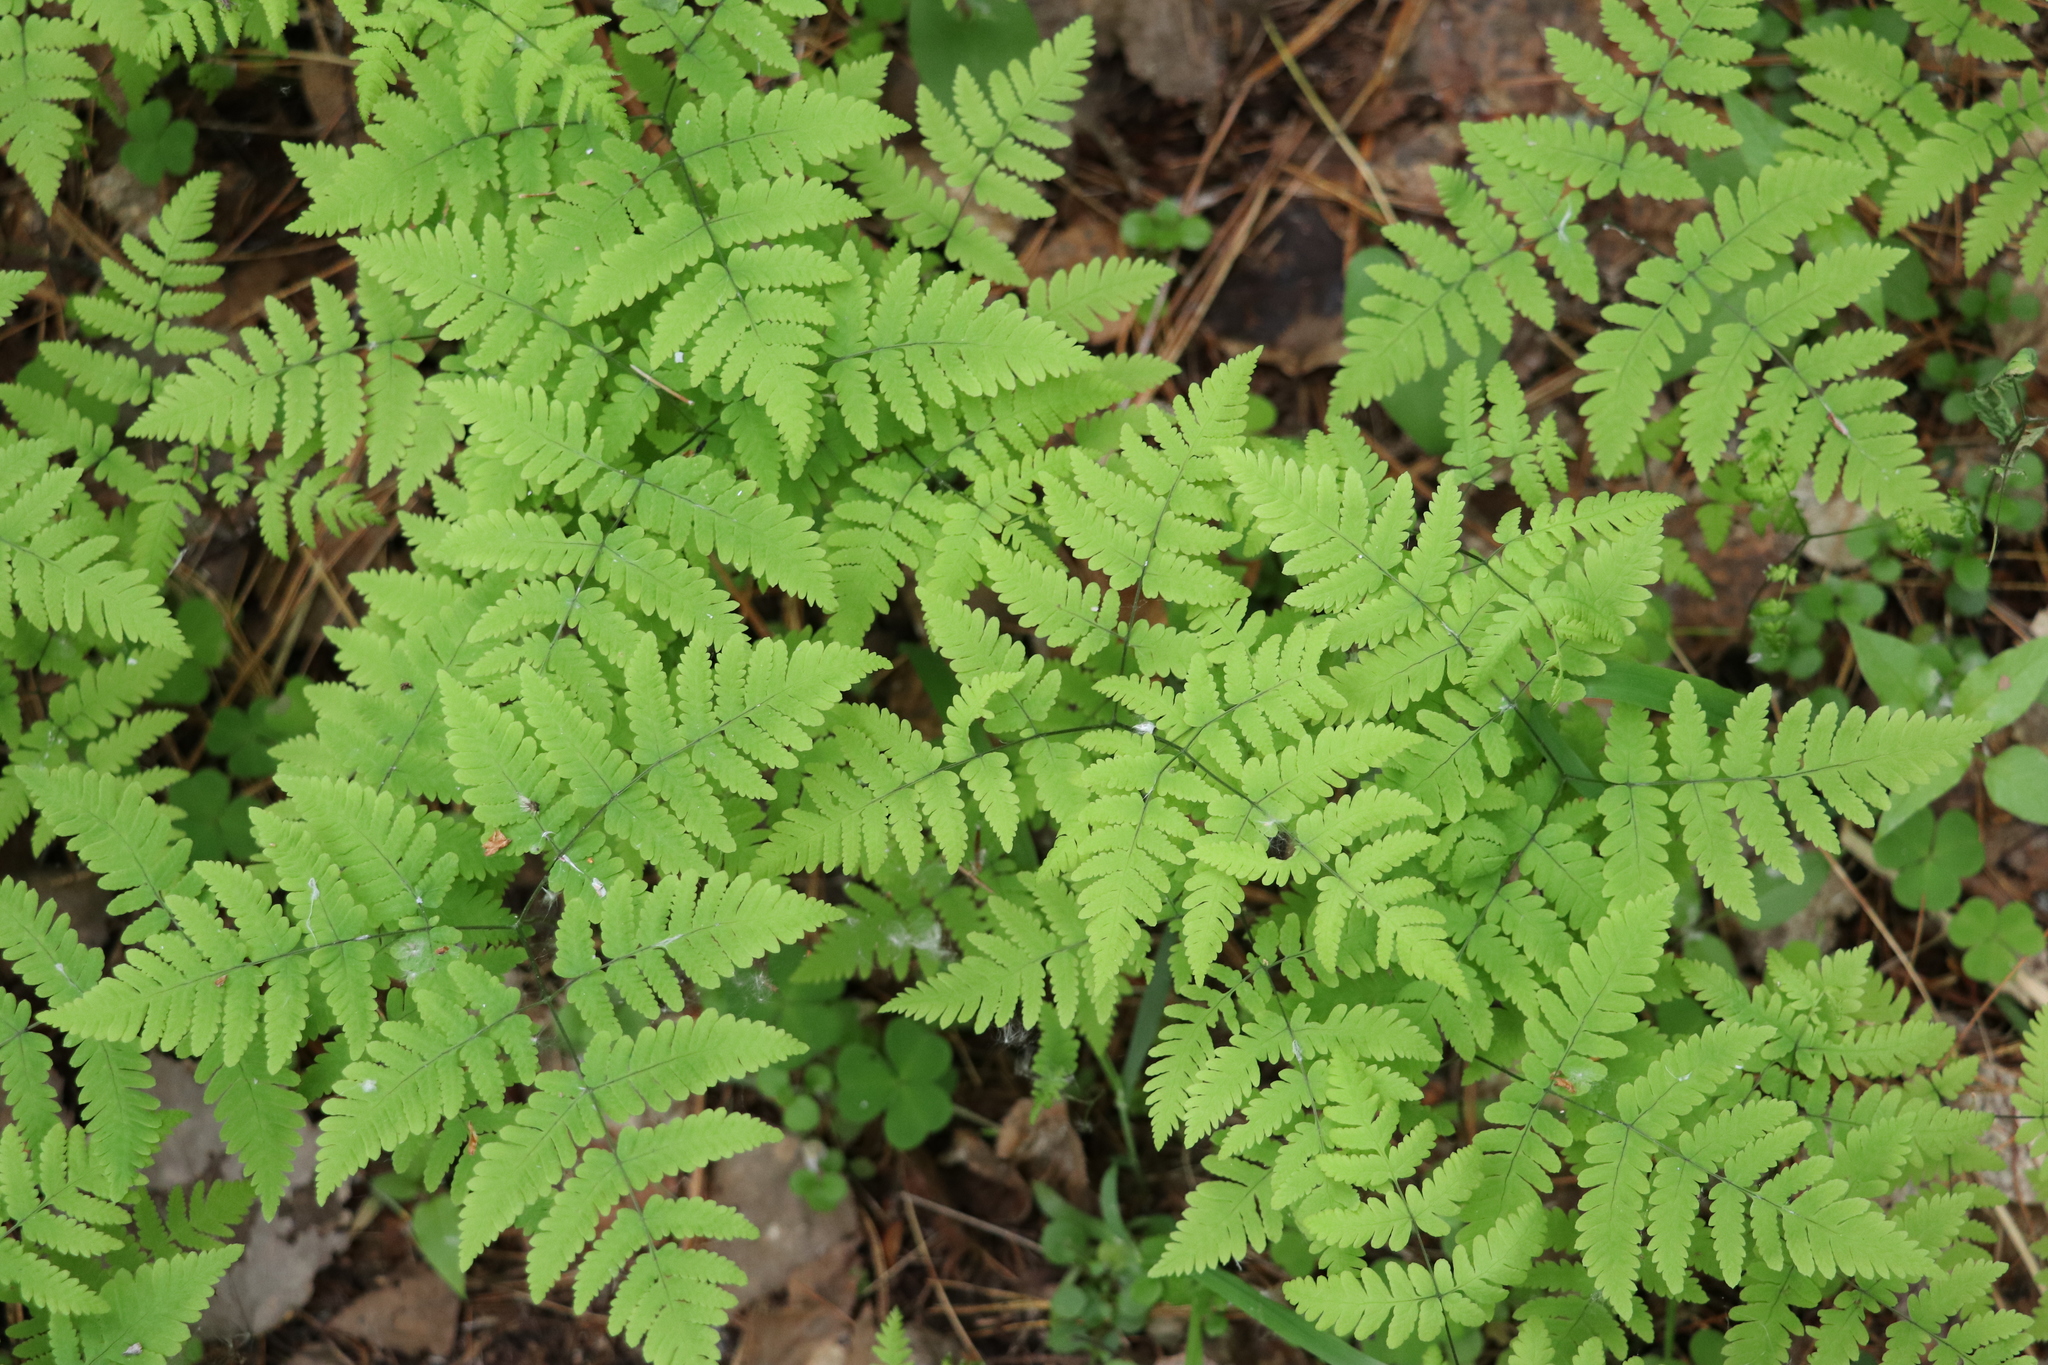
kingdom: Plantae
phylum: Tracheophyta
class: Polypodiopsida
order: Polypodiales
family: Cystopteridaceae
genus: Gymnocarpium
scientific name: Gymnocarpium dryopteris
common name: Oak fern
